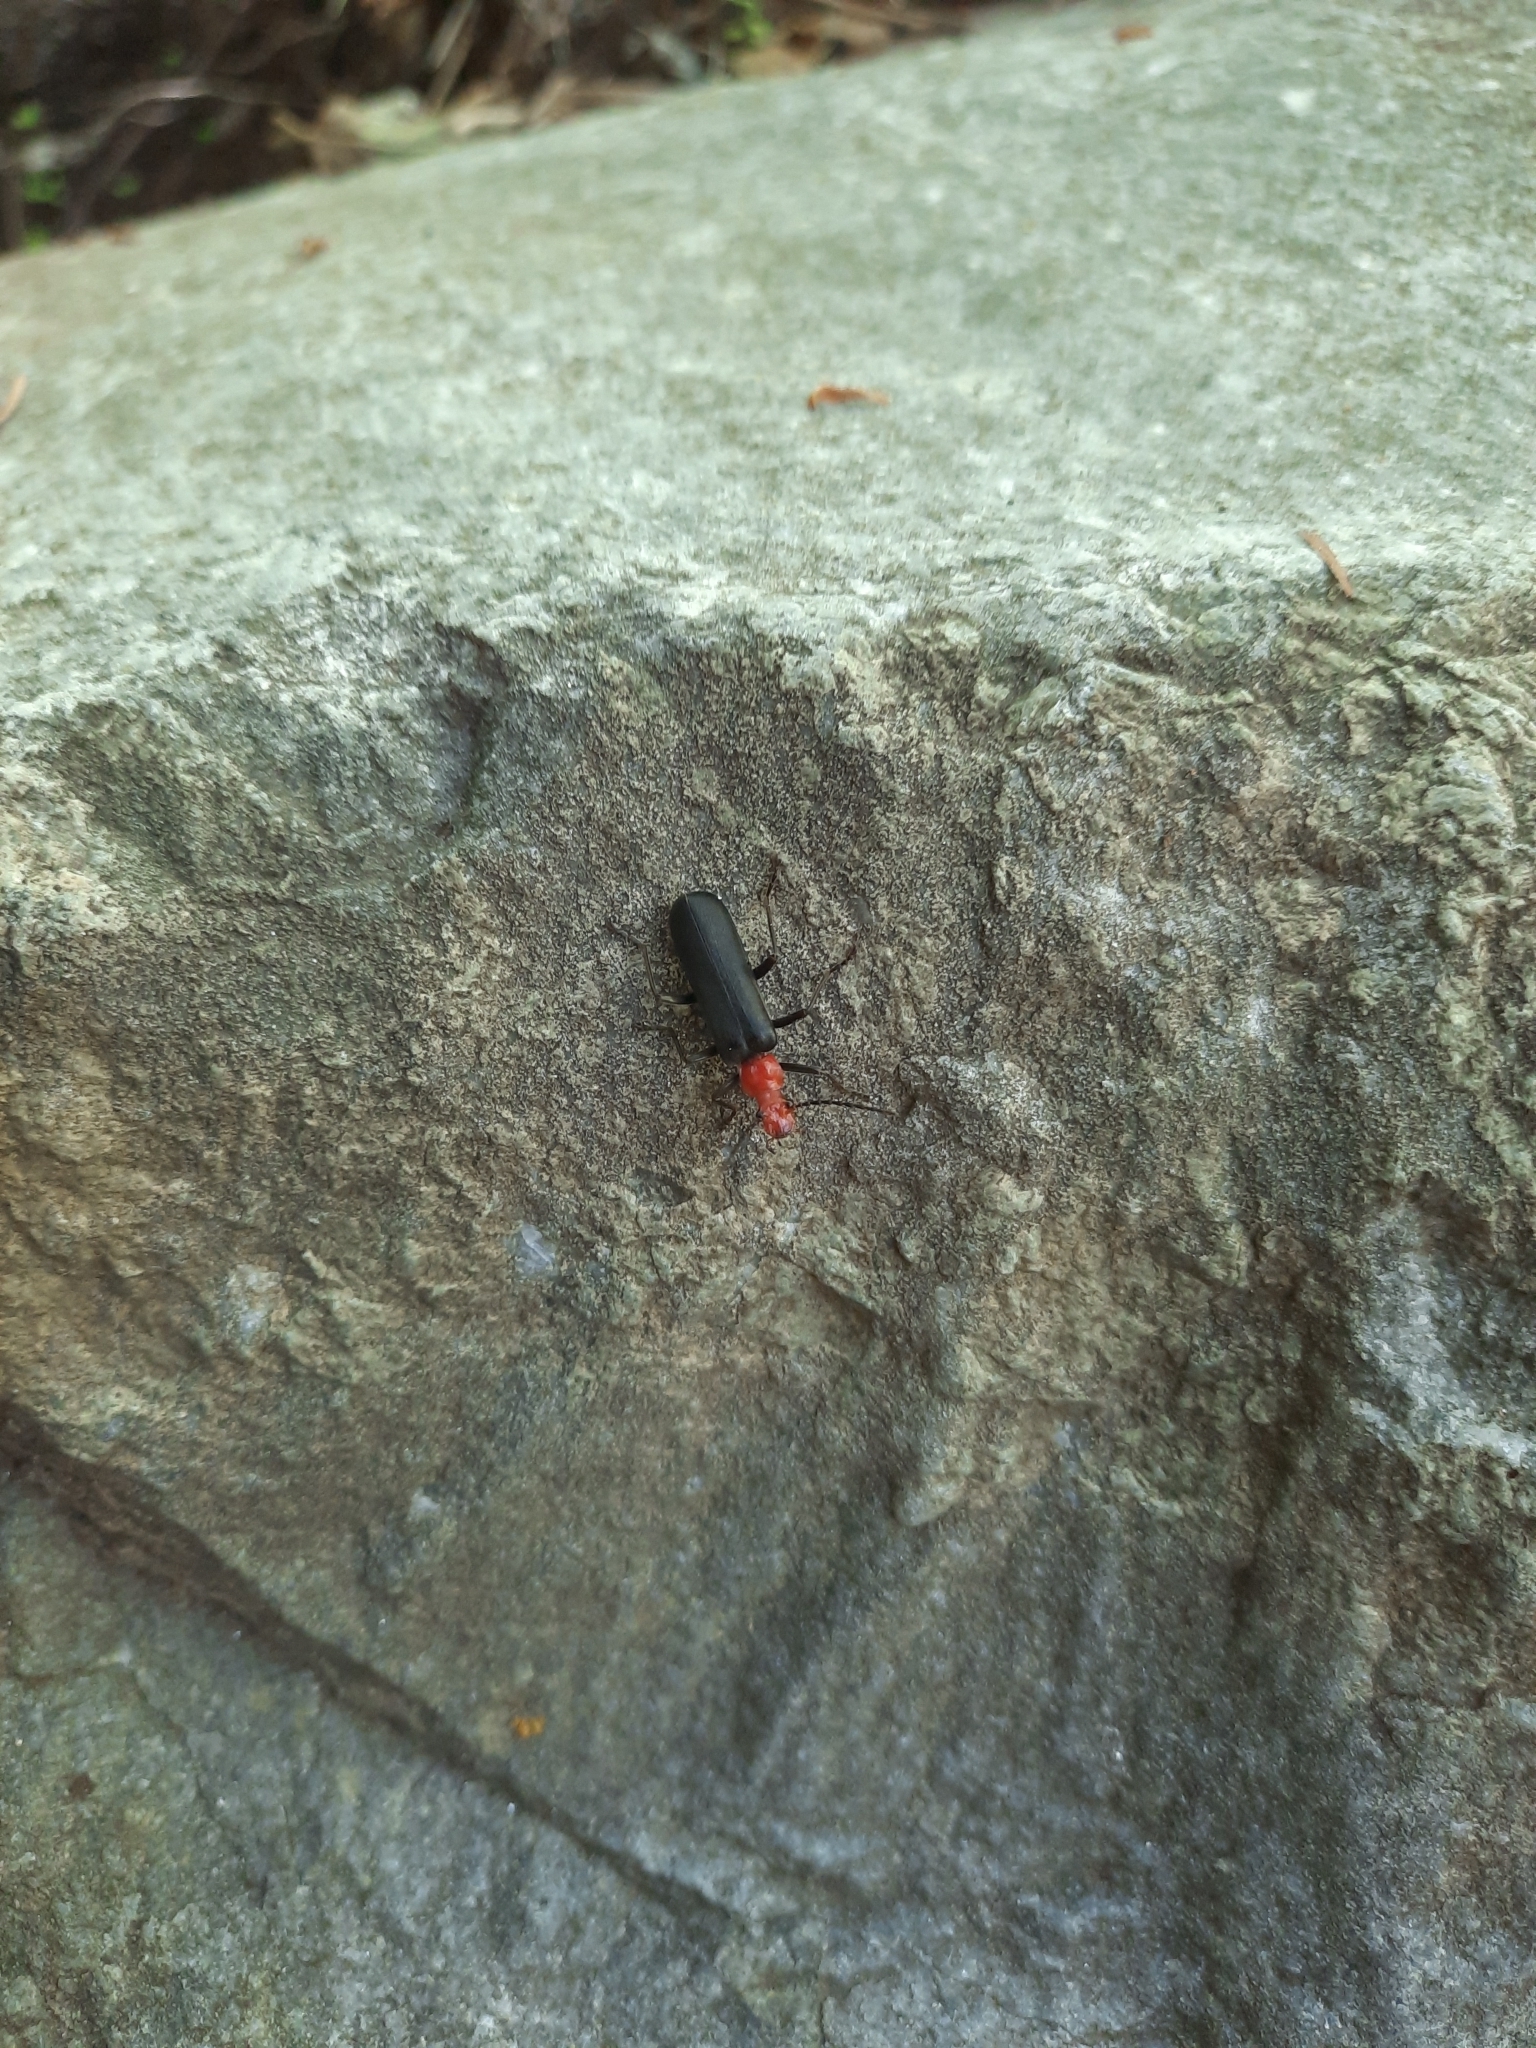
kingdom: Animalia
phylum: Arthropoda
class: Insecta
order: Coleoptera
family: Cantharidae
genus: Podabrus
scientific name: Podabrus pruinosus
